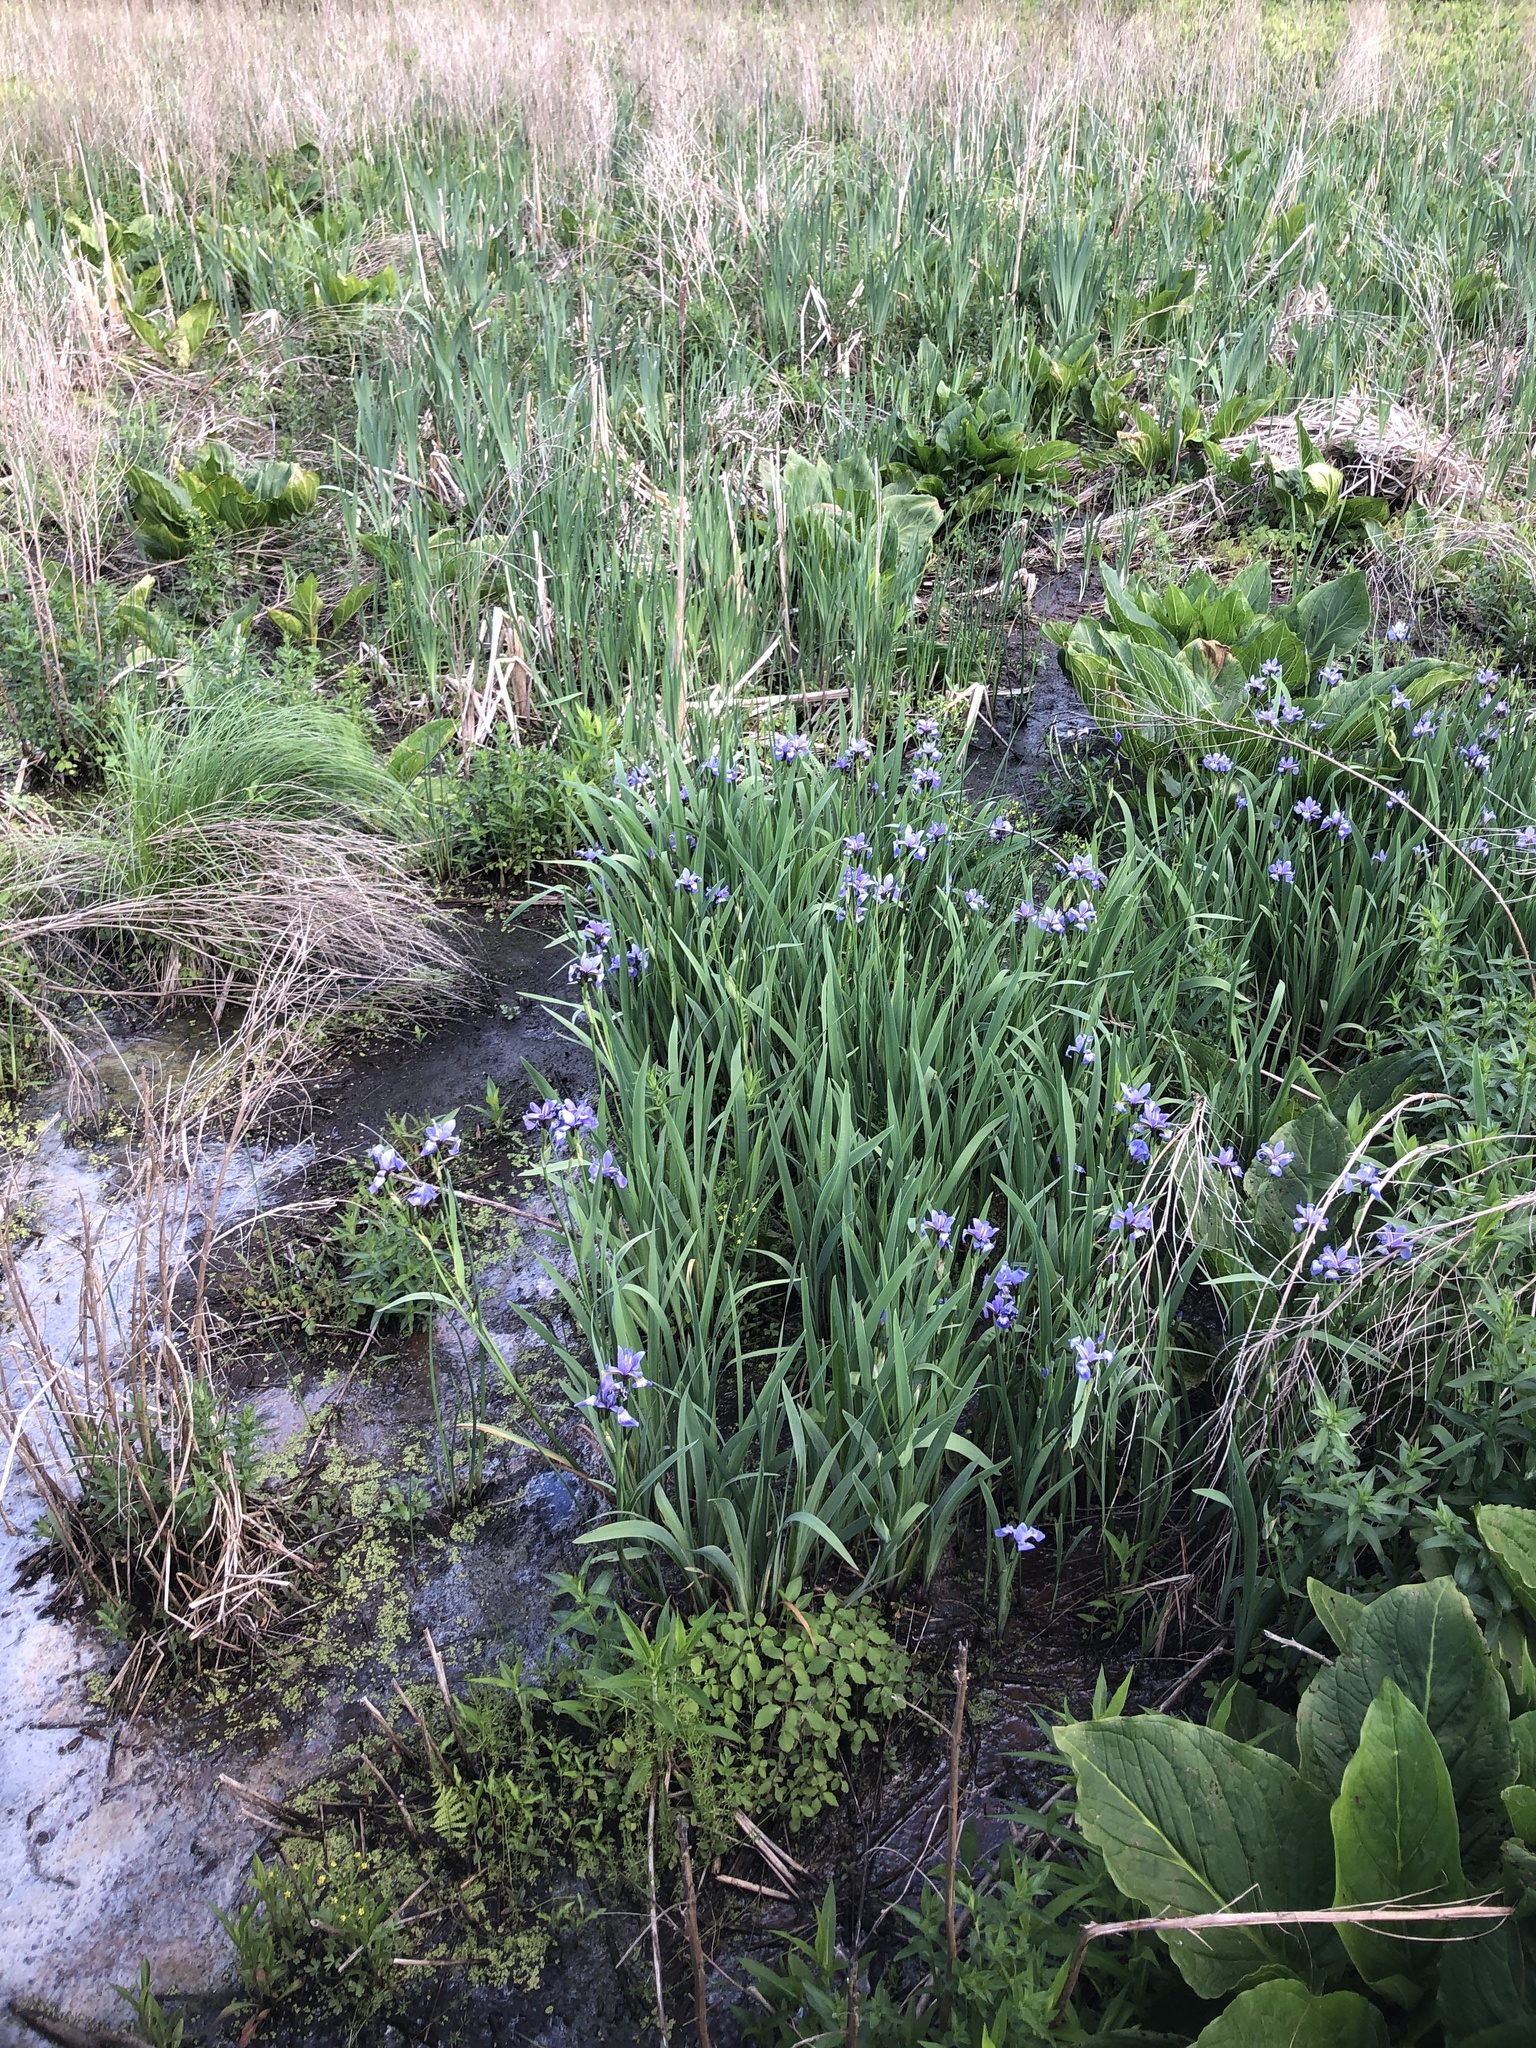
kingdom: Plantae
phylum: Tracheophyta
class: Liliopsida
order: Asparagales
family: Iridaceae
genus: Iris
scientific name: Iris versicolor
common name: Purple iris
